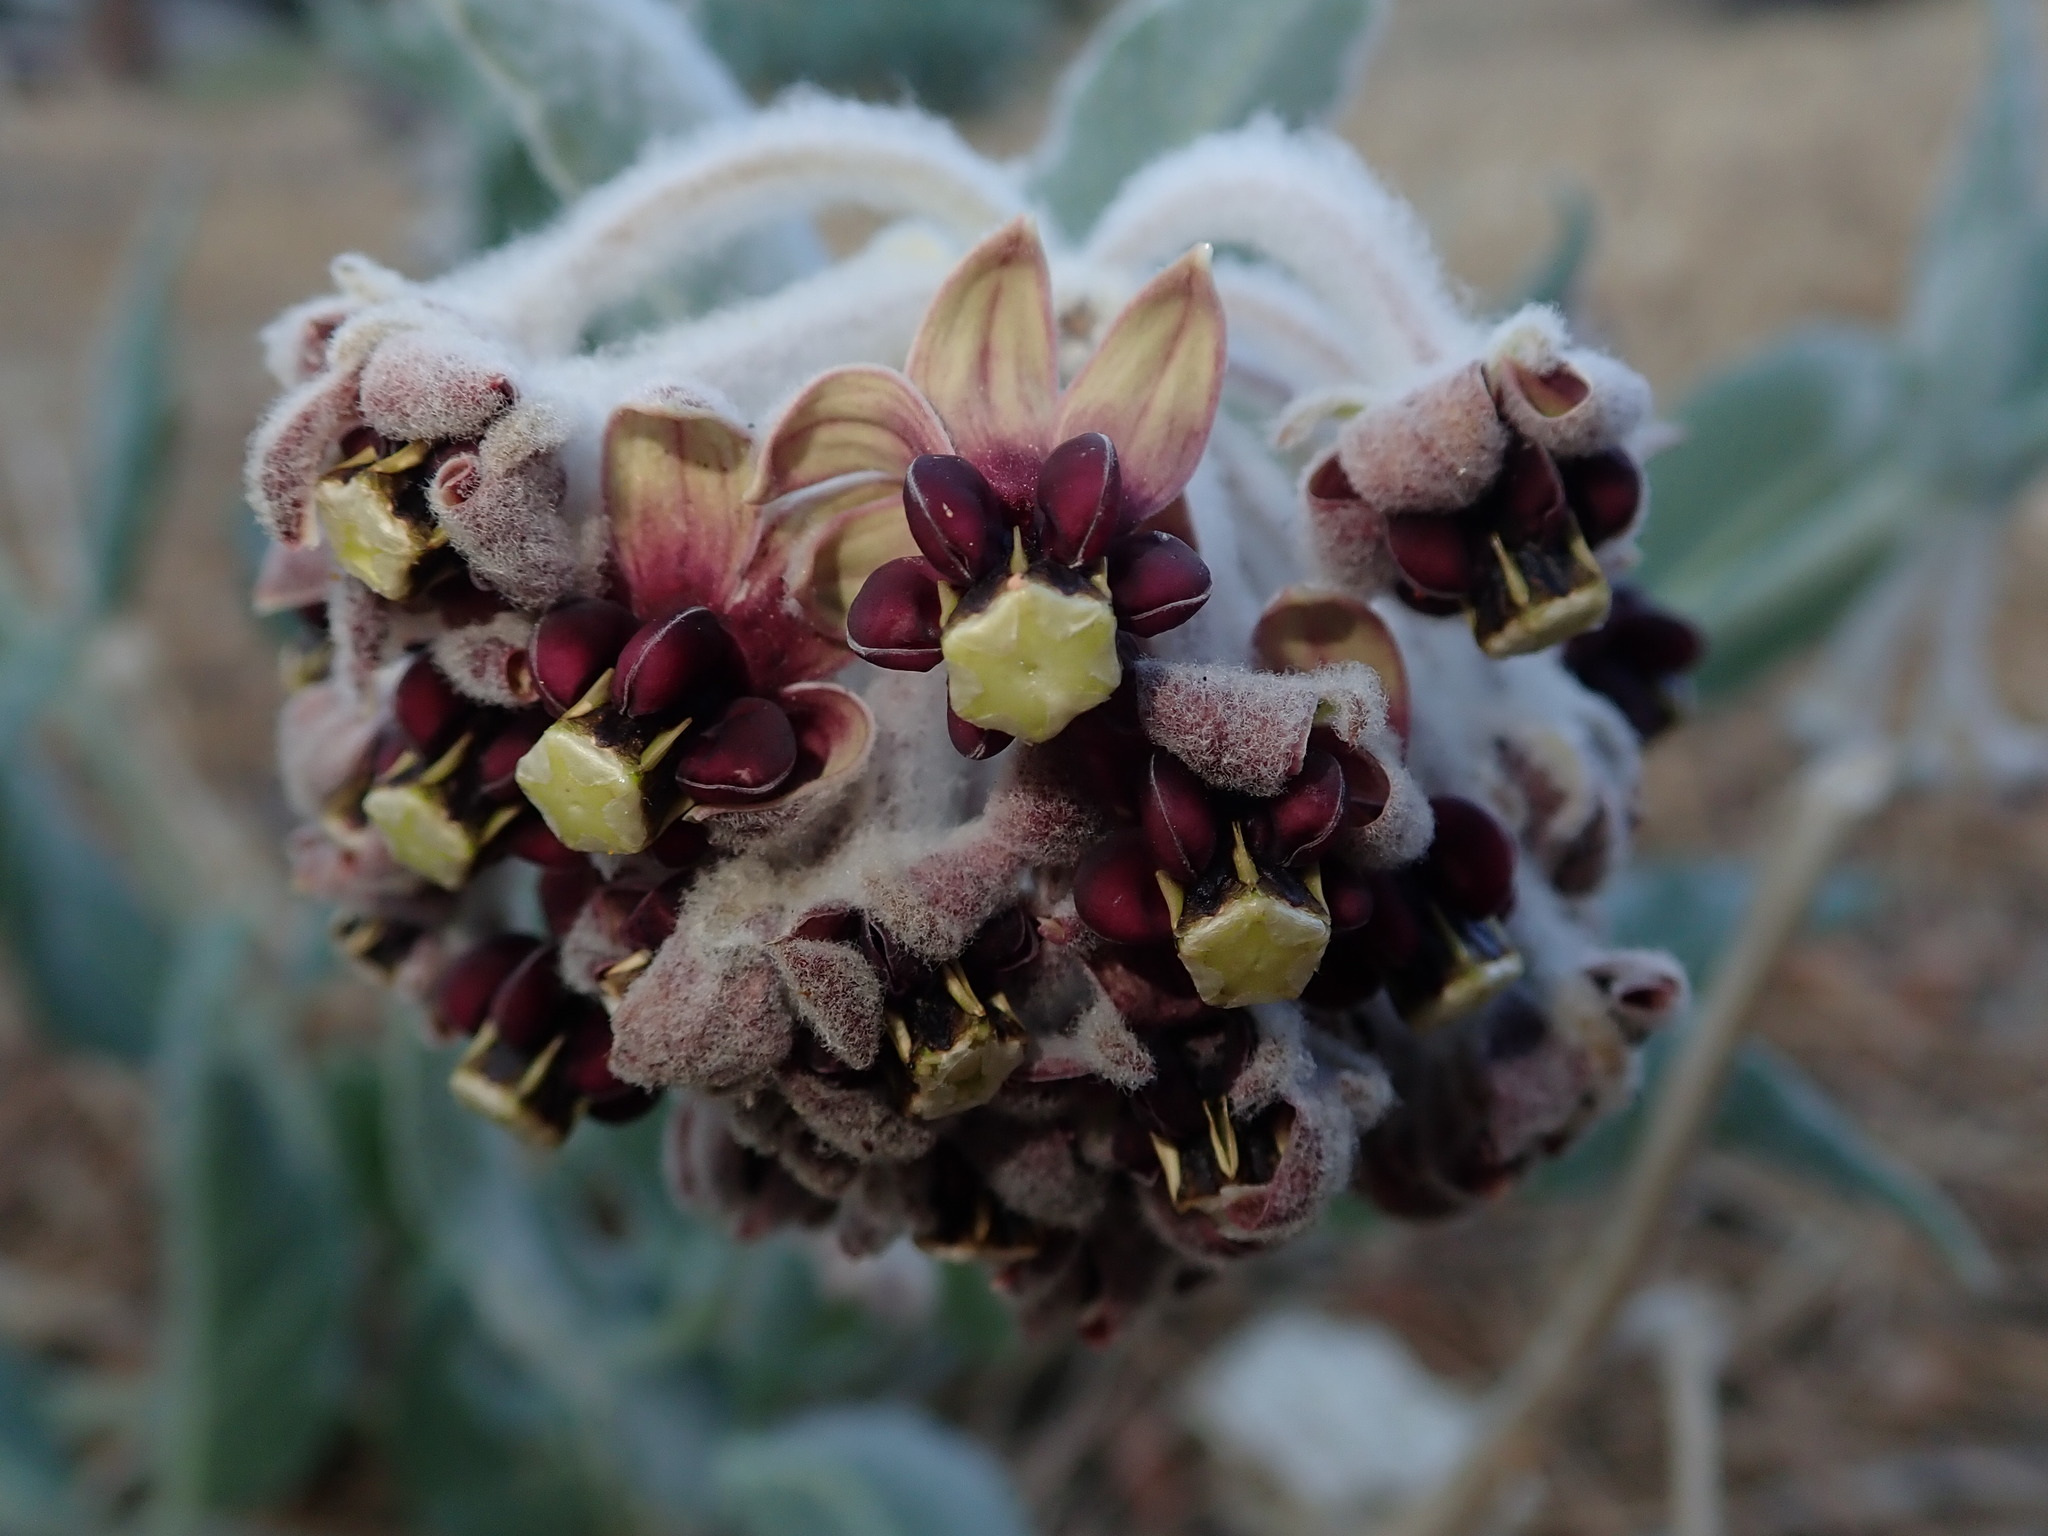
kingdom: Plantae
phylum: Tracheophyta
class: Magnoliopsida
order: Gentianales
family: Apocynaceae
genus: Asclepias
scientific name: Asclepias californica
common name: California milkweed
